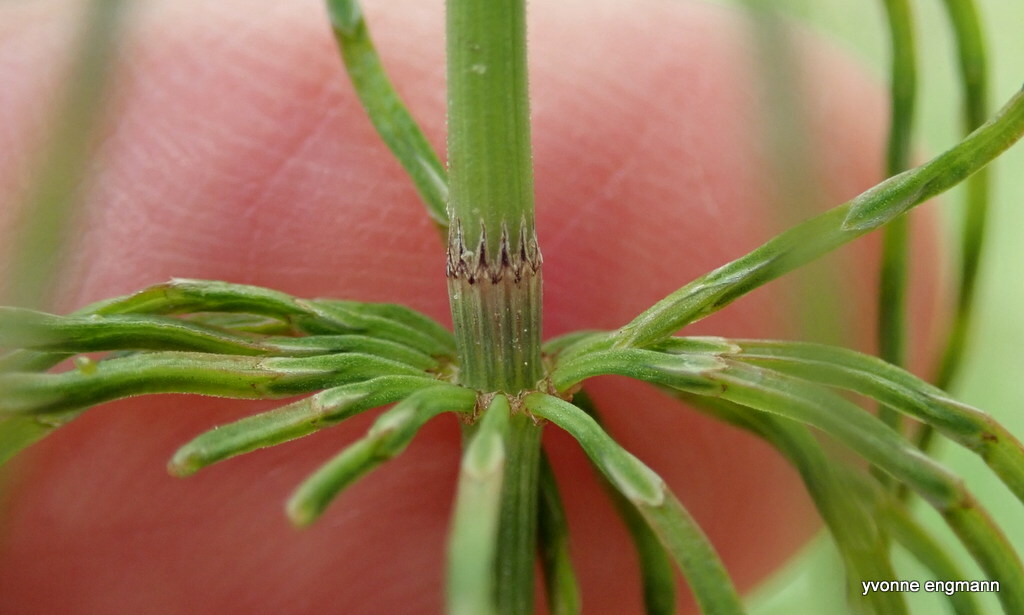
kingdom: Plantae
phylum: Tracheophyta
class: Polypodiopsida
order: Equisetales
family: Equisetaceae
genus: Equisetum
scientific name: Equisetum pratense
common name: Meadow horsetail
